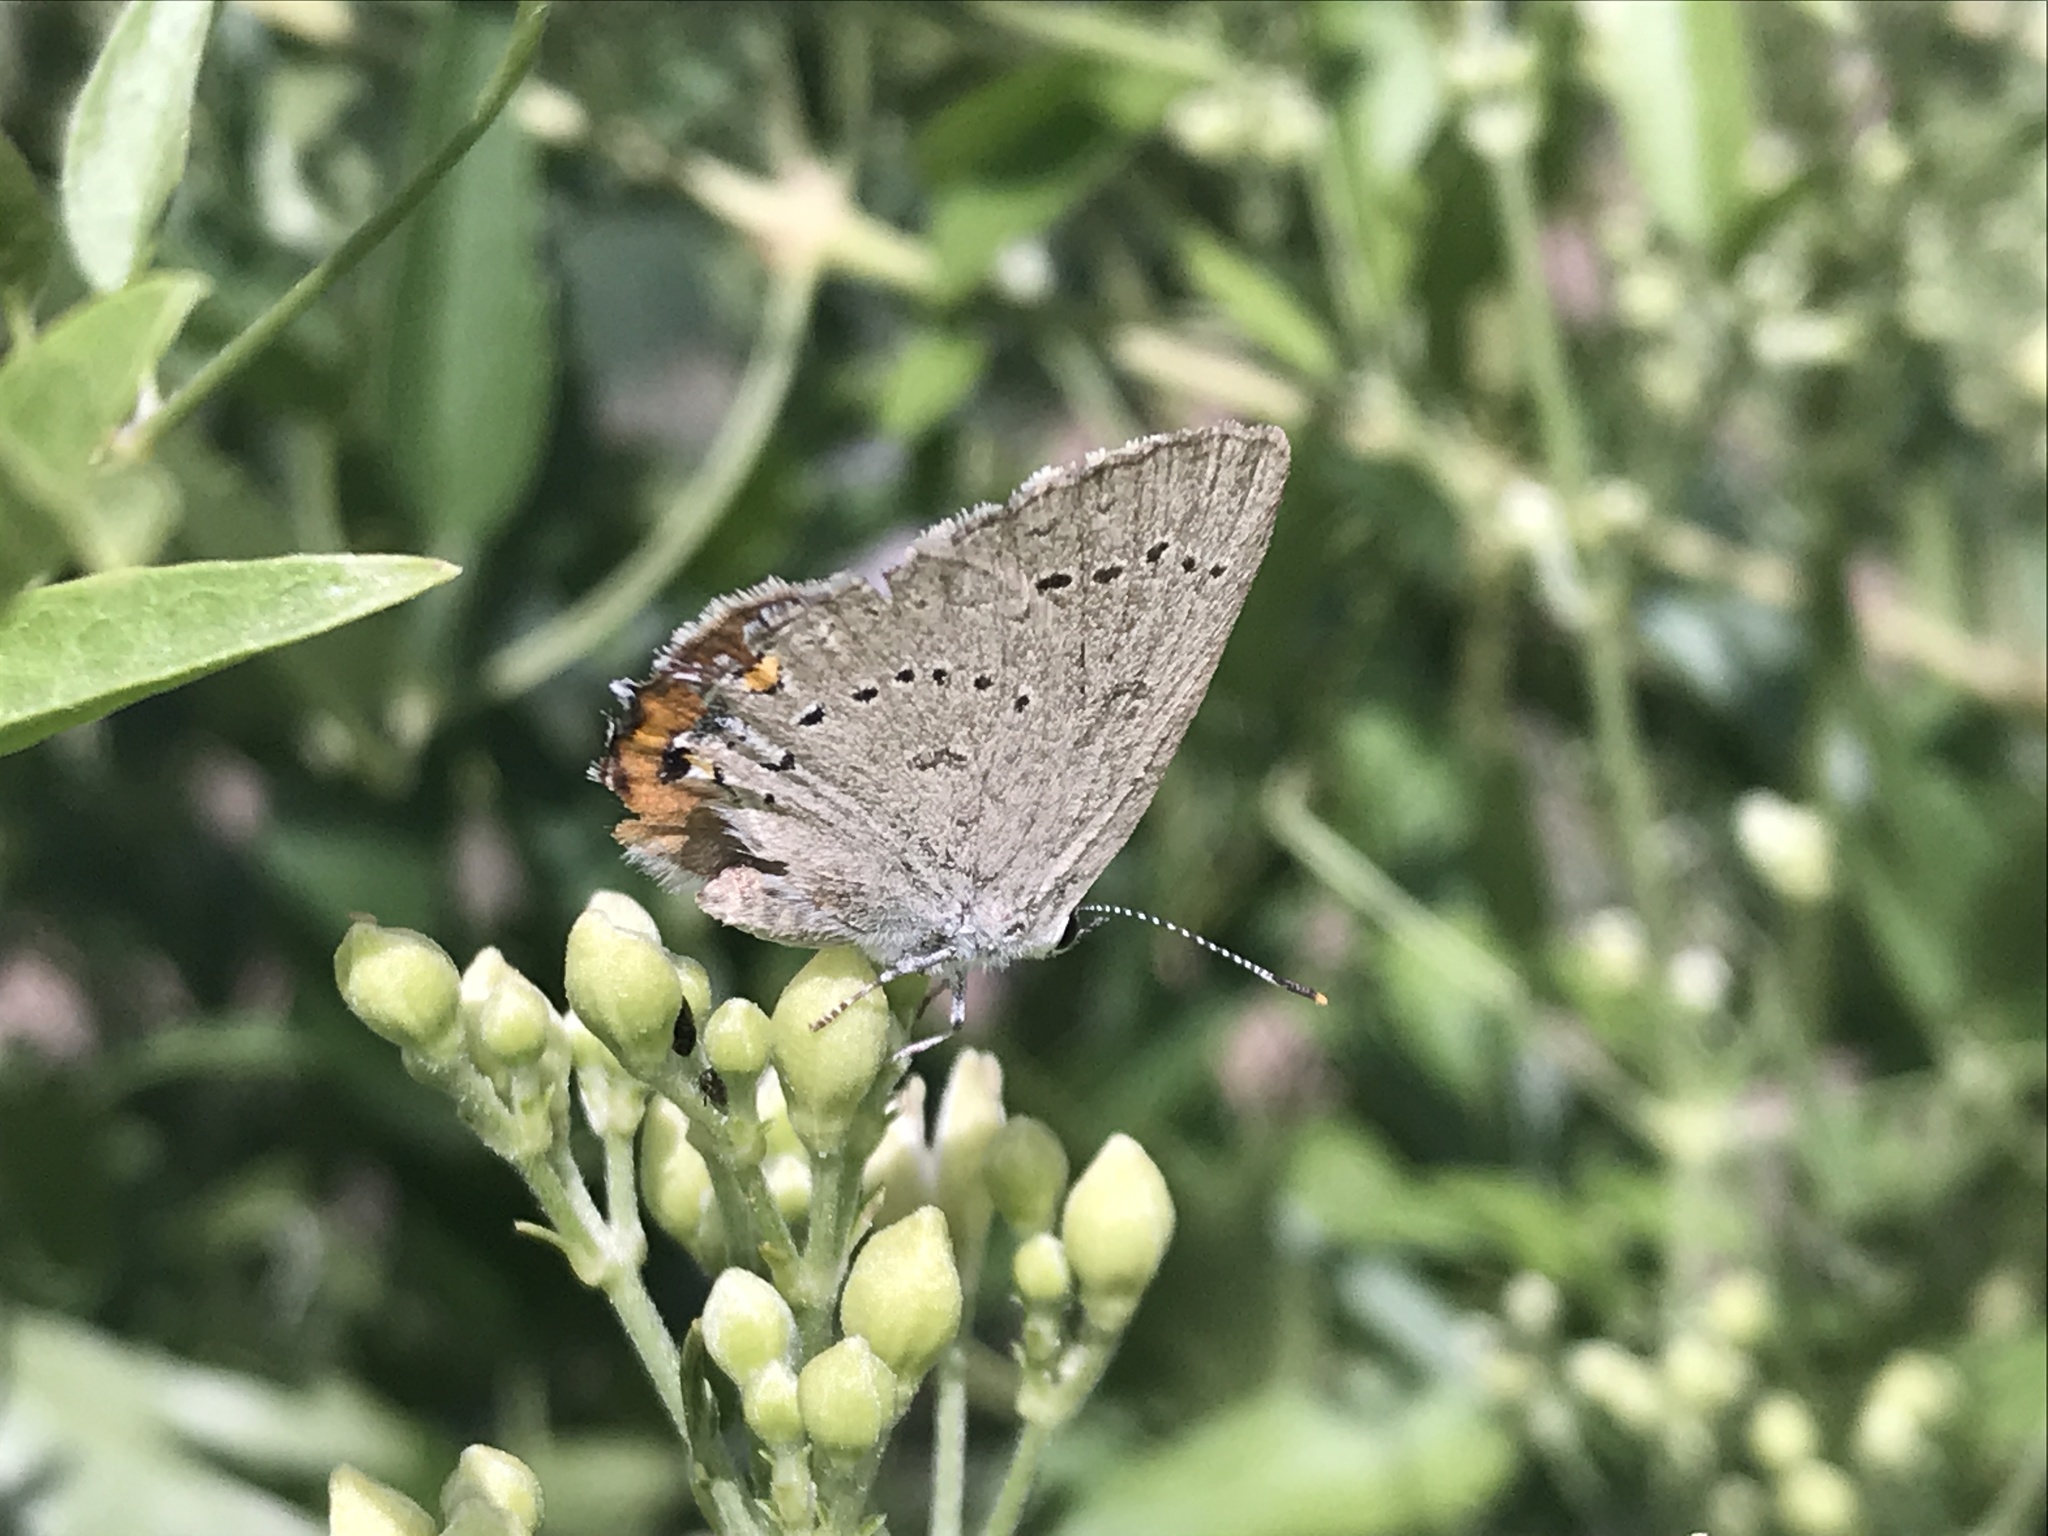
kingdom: Animalia
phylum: Arthropoda
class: Insecta
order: Lepidoptera
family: Lycaenidae
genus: Strymon
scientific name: Strymon sylvinus
